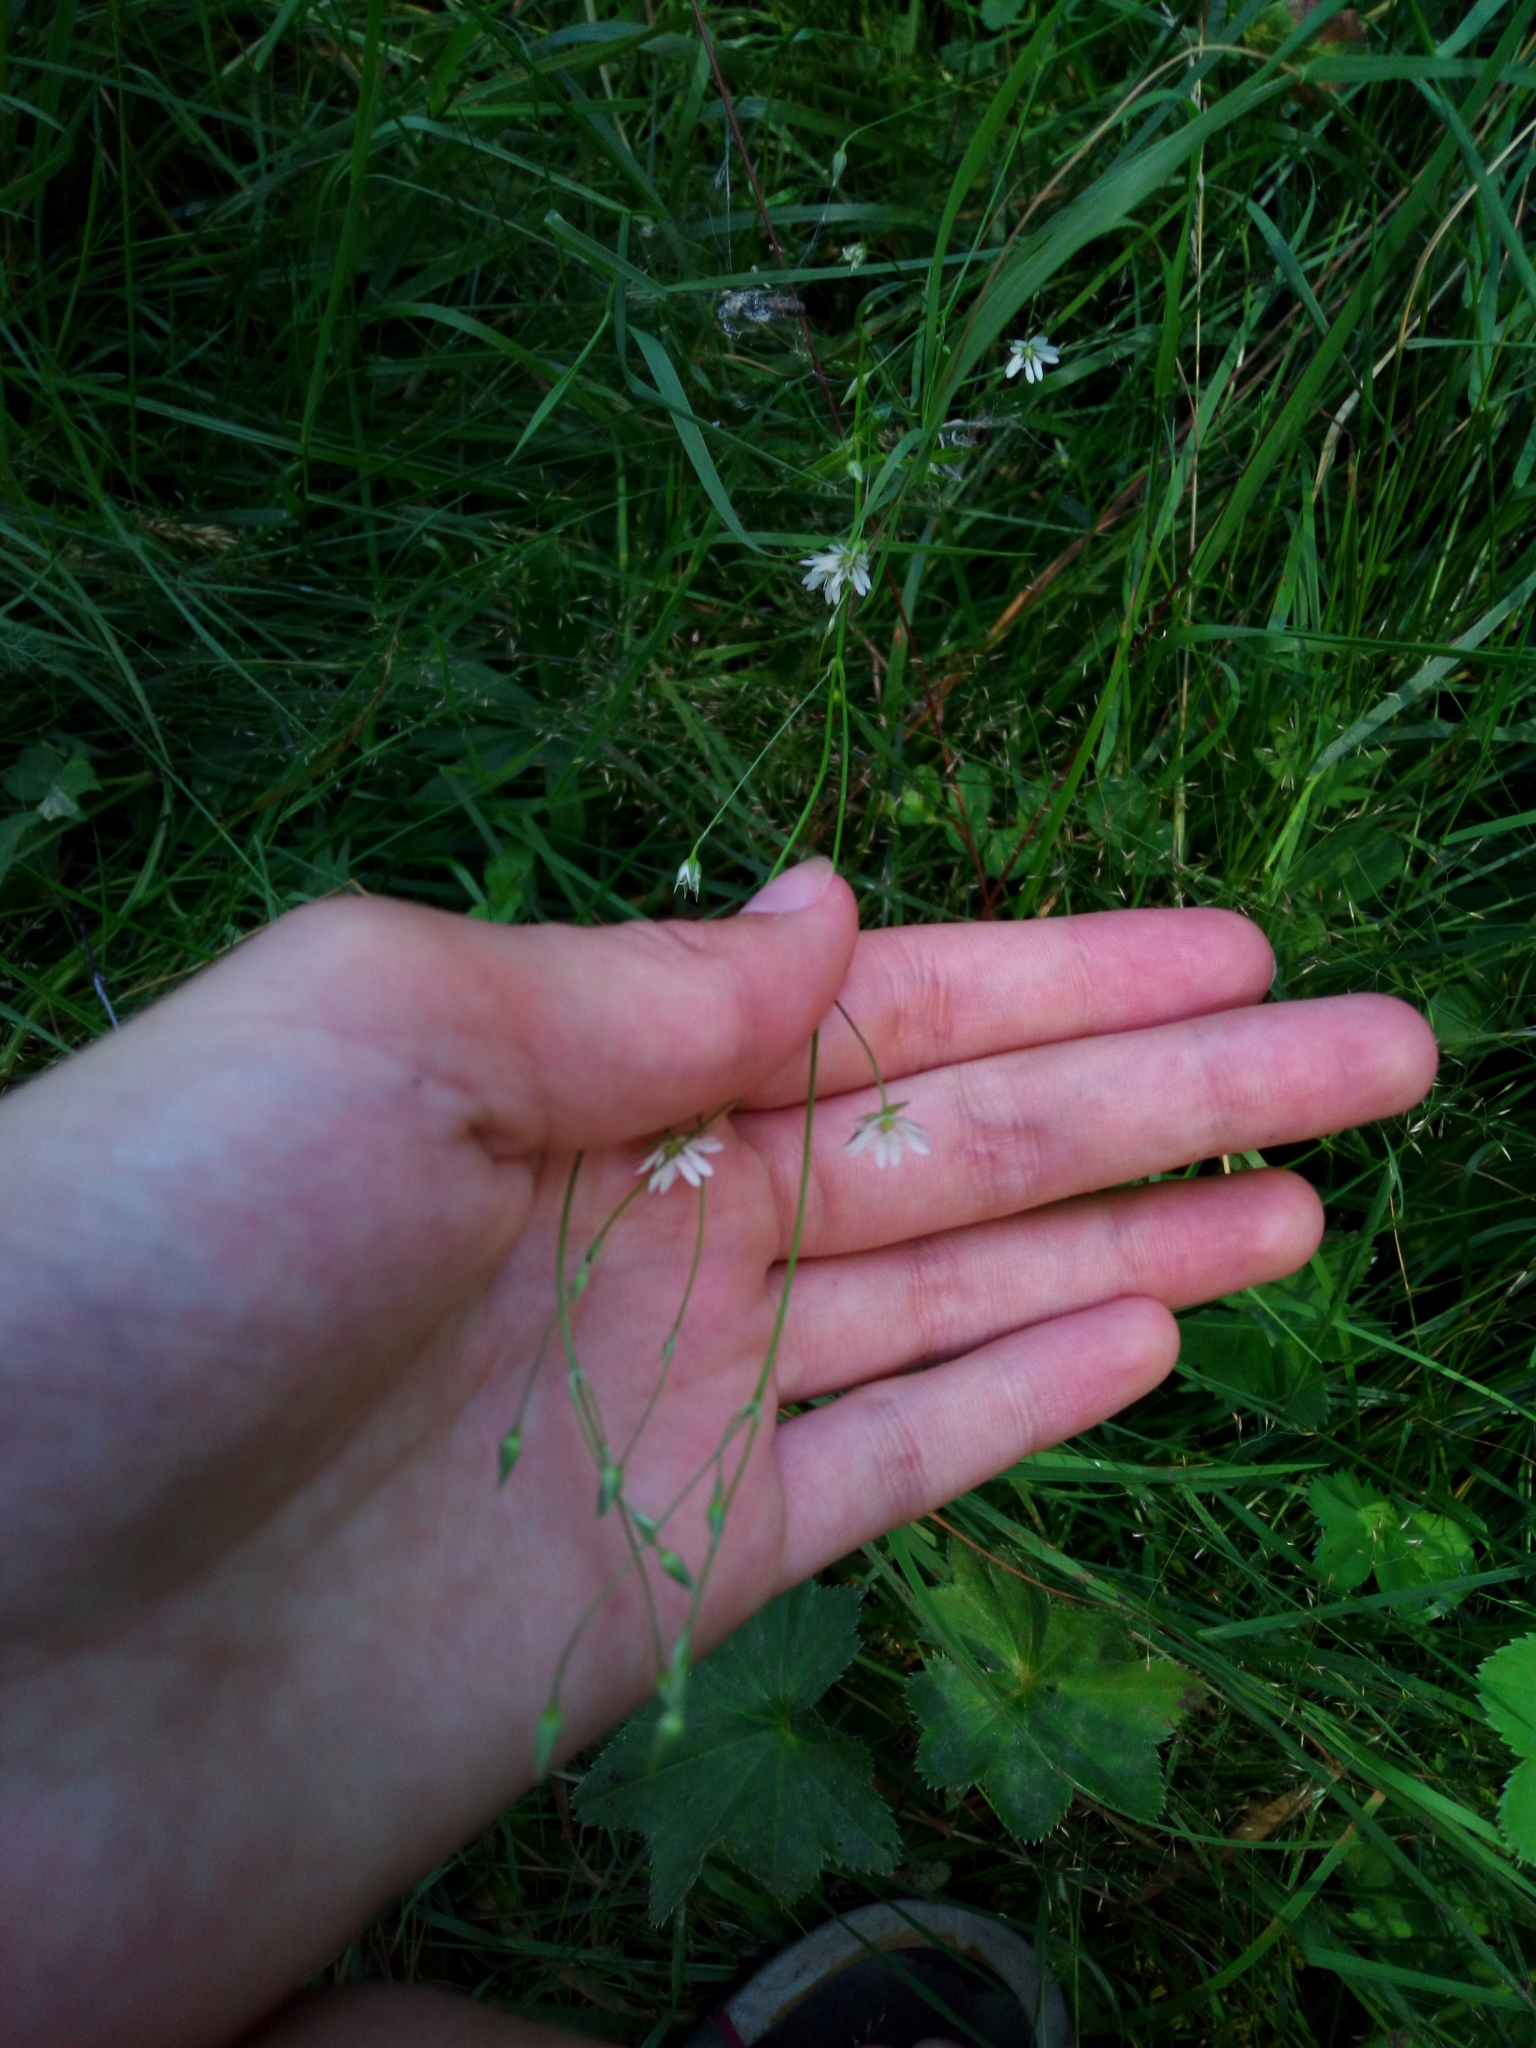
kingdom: Plantae
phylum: Tracheophyta
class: Magnoliopsida
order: Caryophyllales
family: Caryophyllaceae
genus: Stellaria
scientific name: Stellaria graminea
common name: Grass-like starwort
